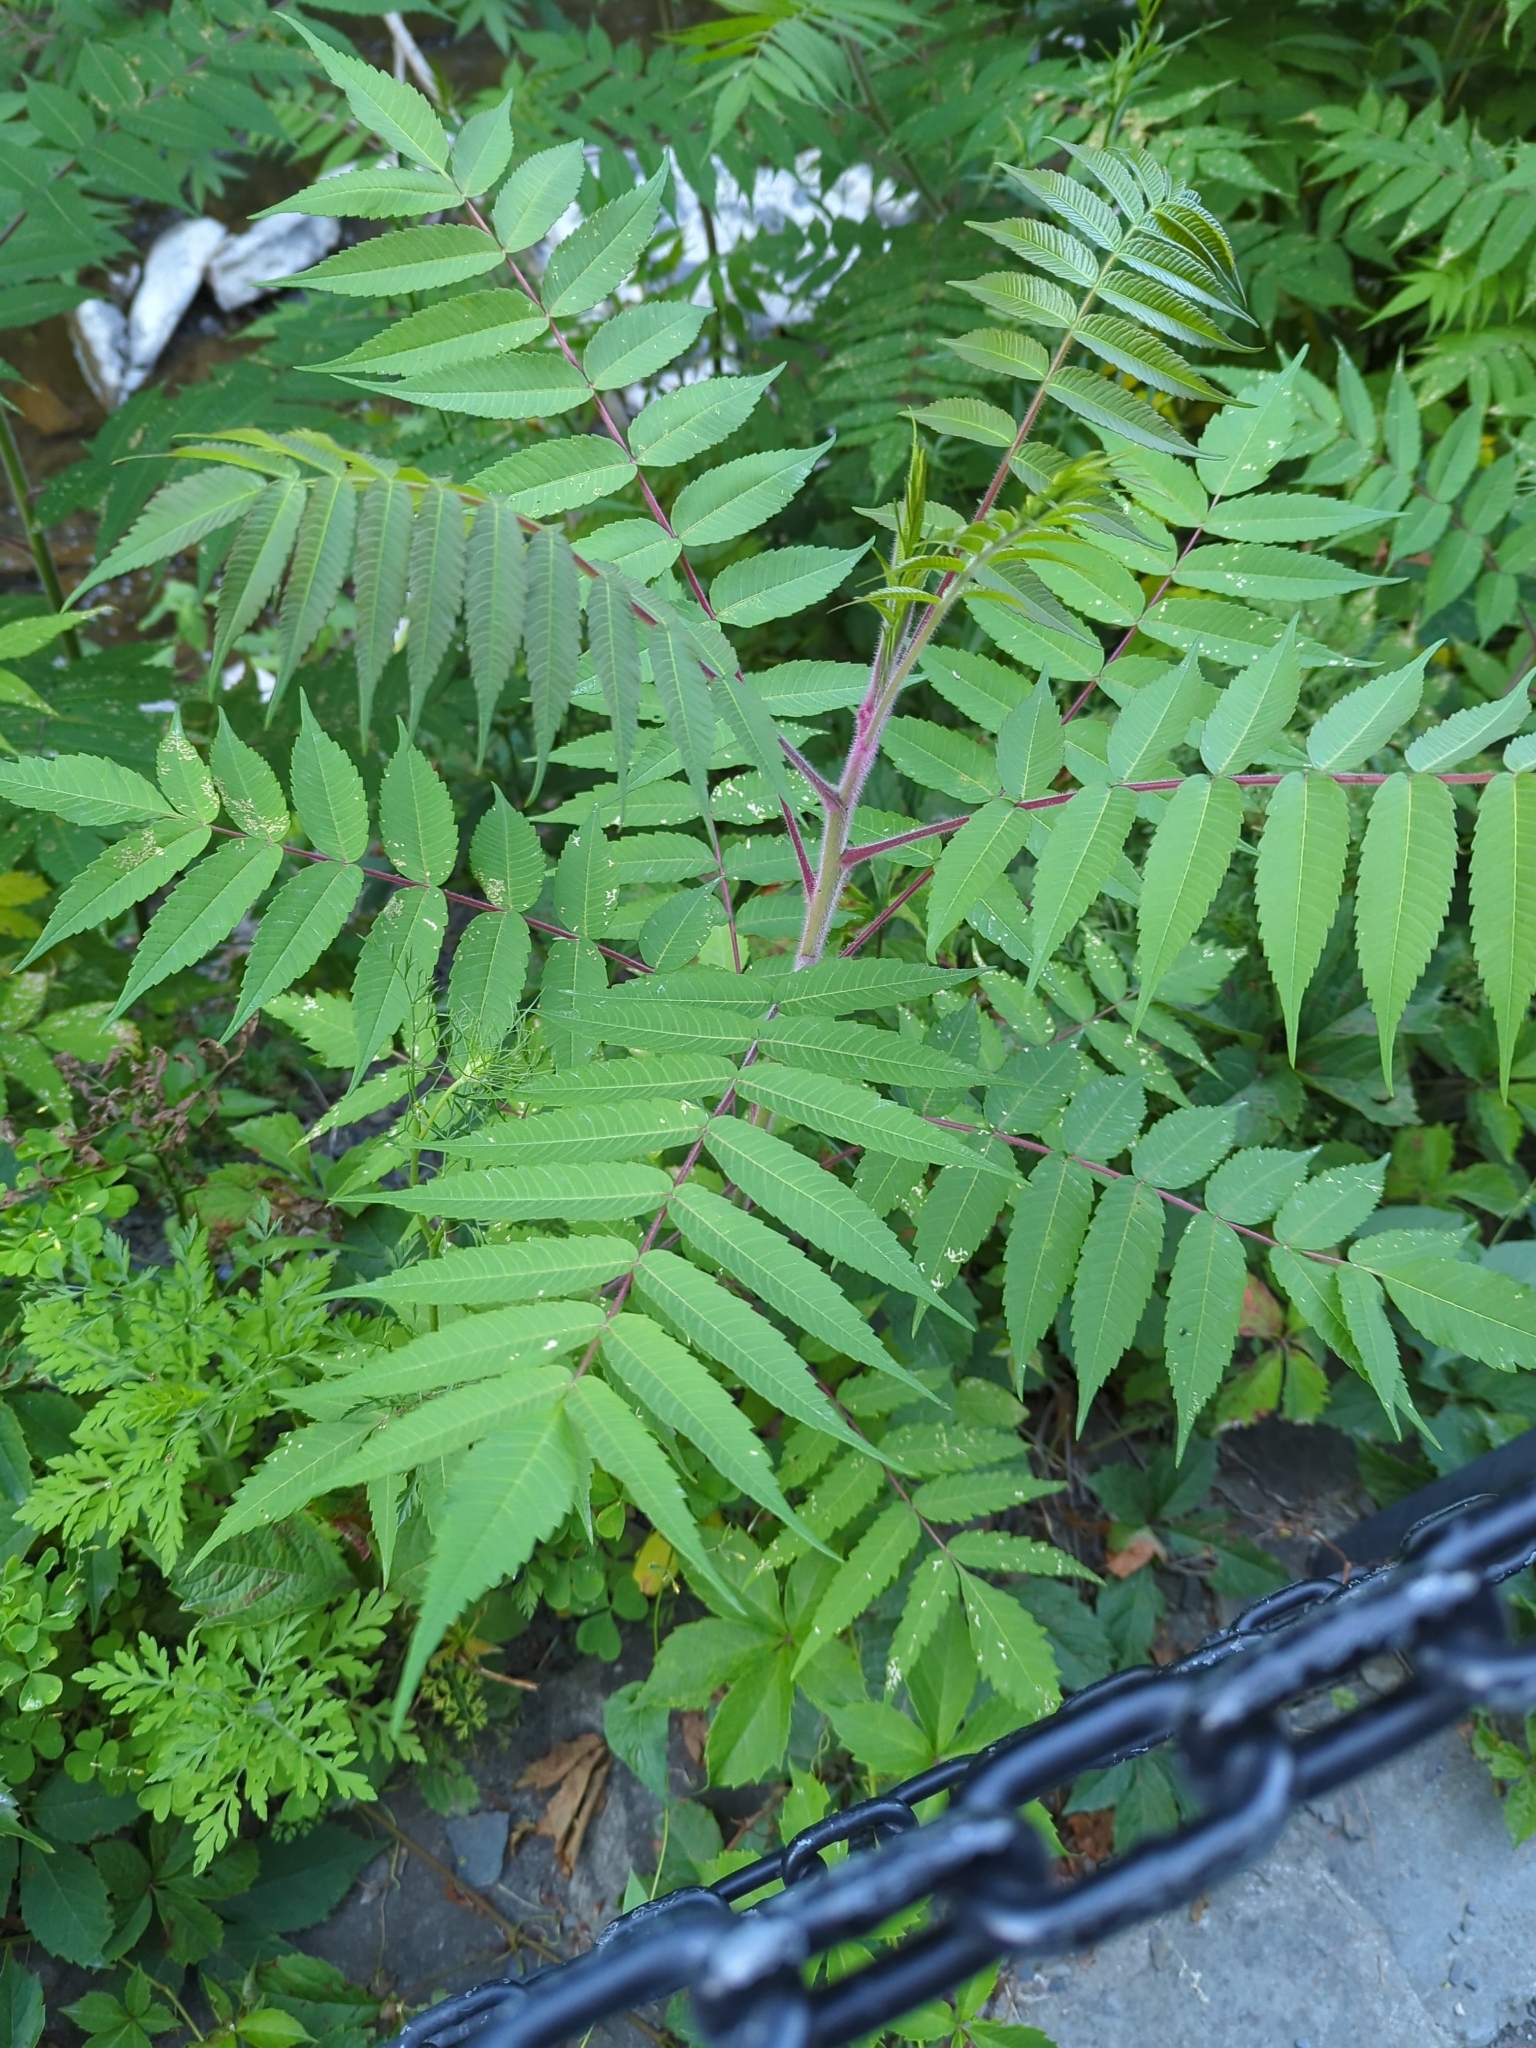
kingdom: Plantae
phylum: Tracheophyta
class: Magnoliopsida
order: Sapindales
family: Anacardiaceae
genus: Rhus
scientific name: Rhus typhina
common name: Staghorn sumac
